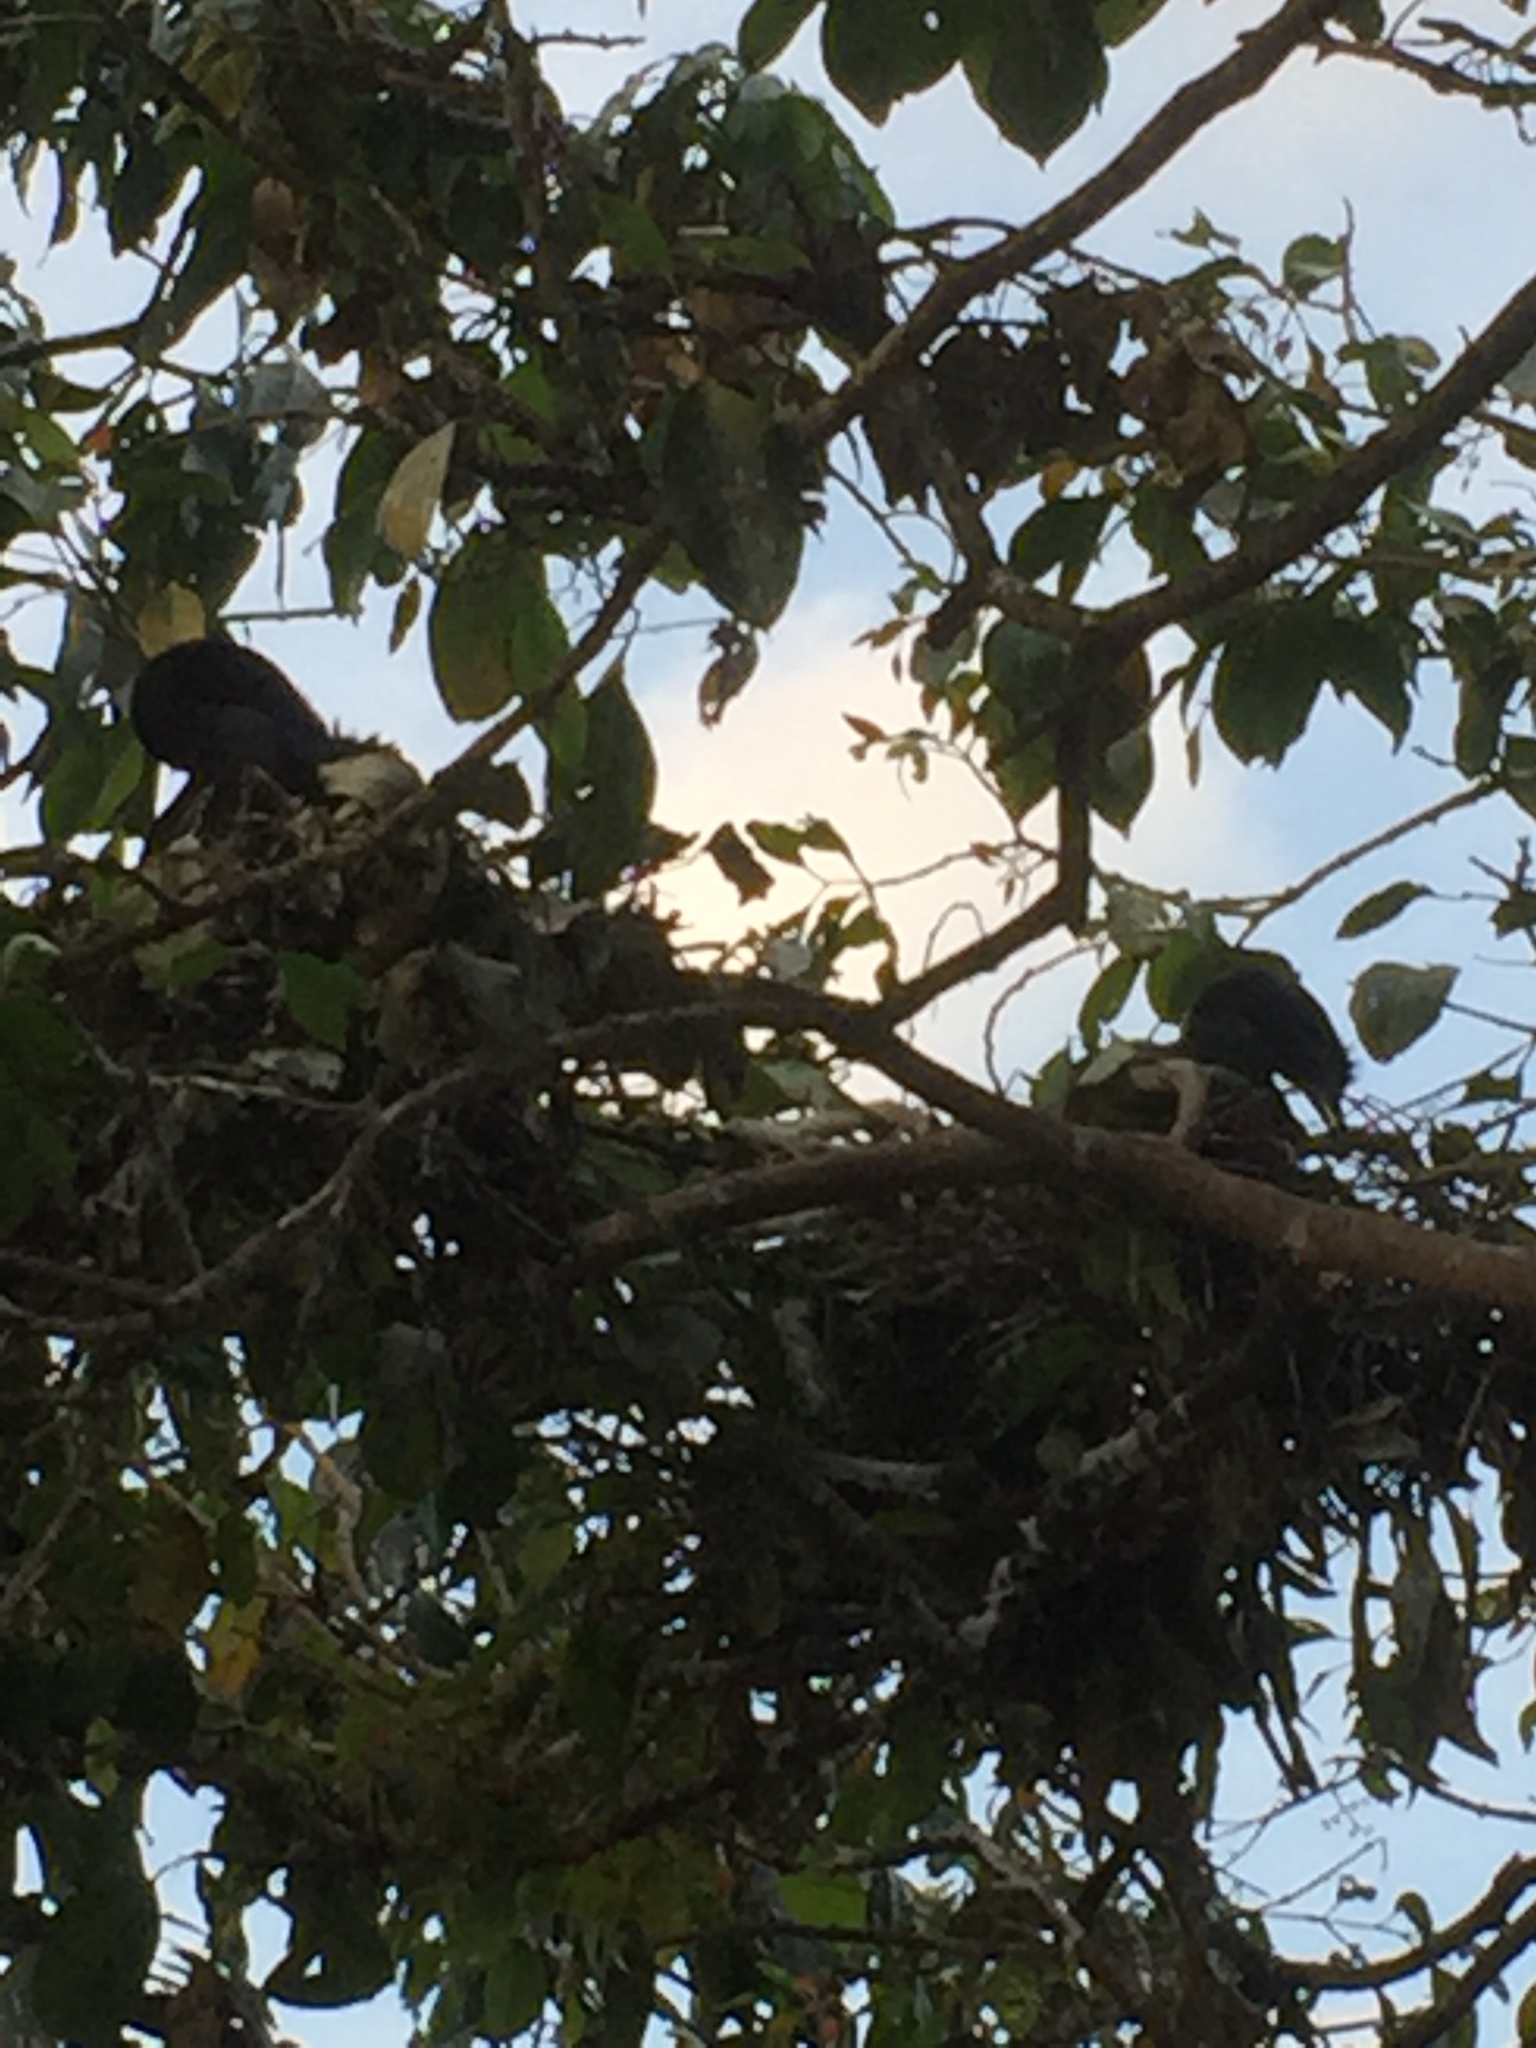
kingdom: Animalia
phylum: Chordata
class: Aves
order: Suliformes
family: Phalacrocoracidae
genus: Phalacrocorax
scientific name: Phalacrocorax fuscicollis
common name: Indian cormorant
